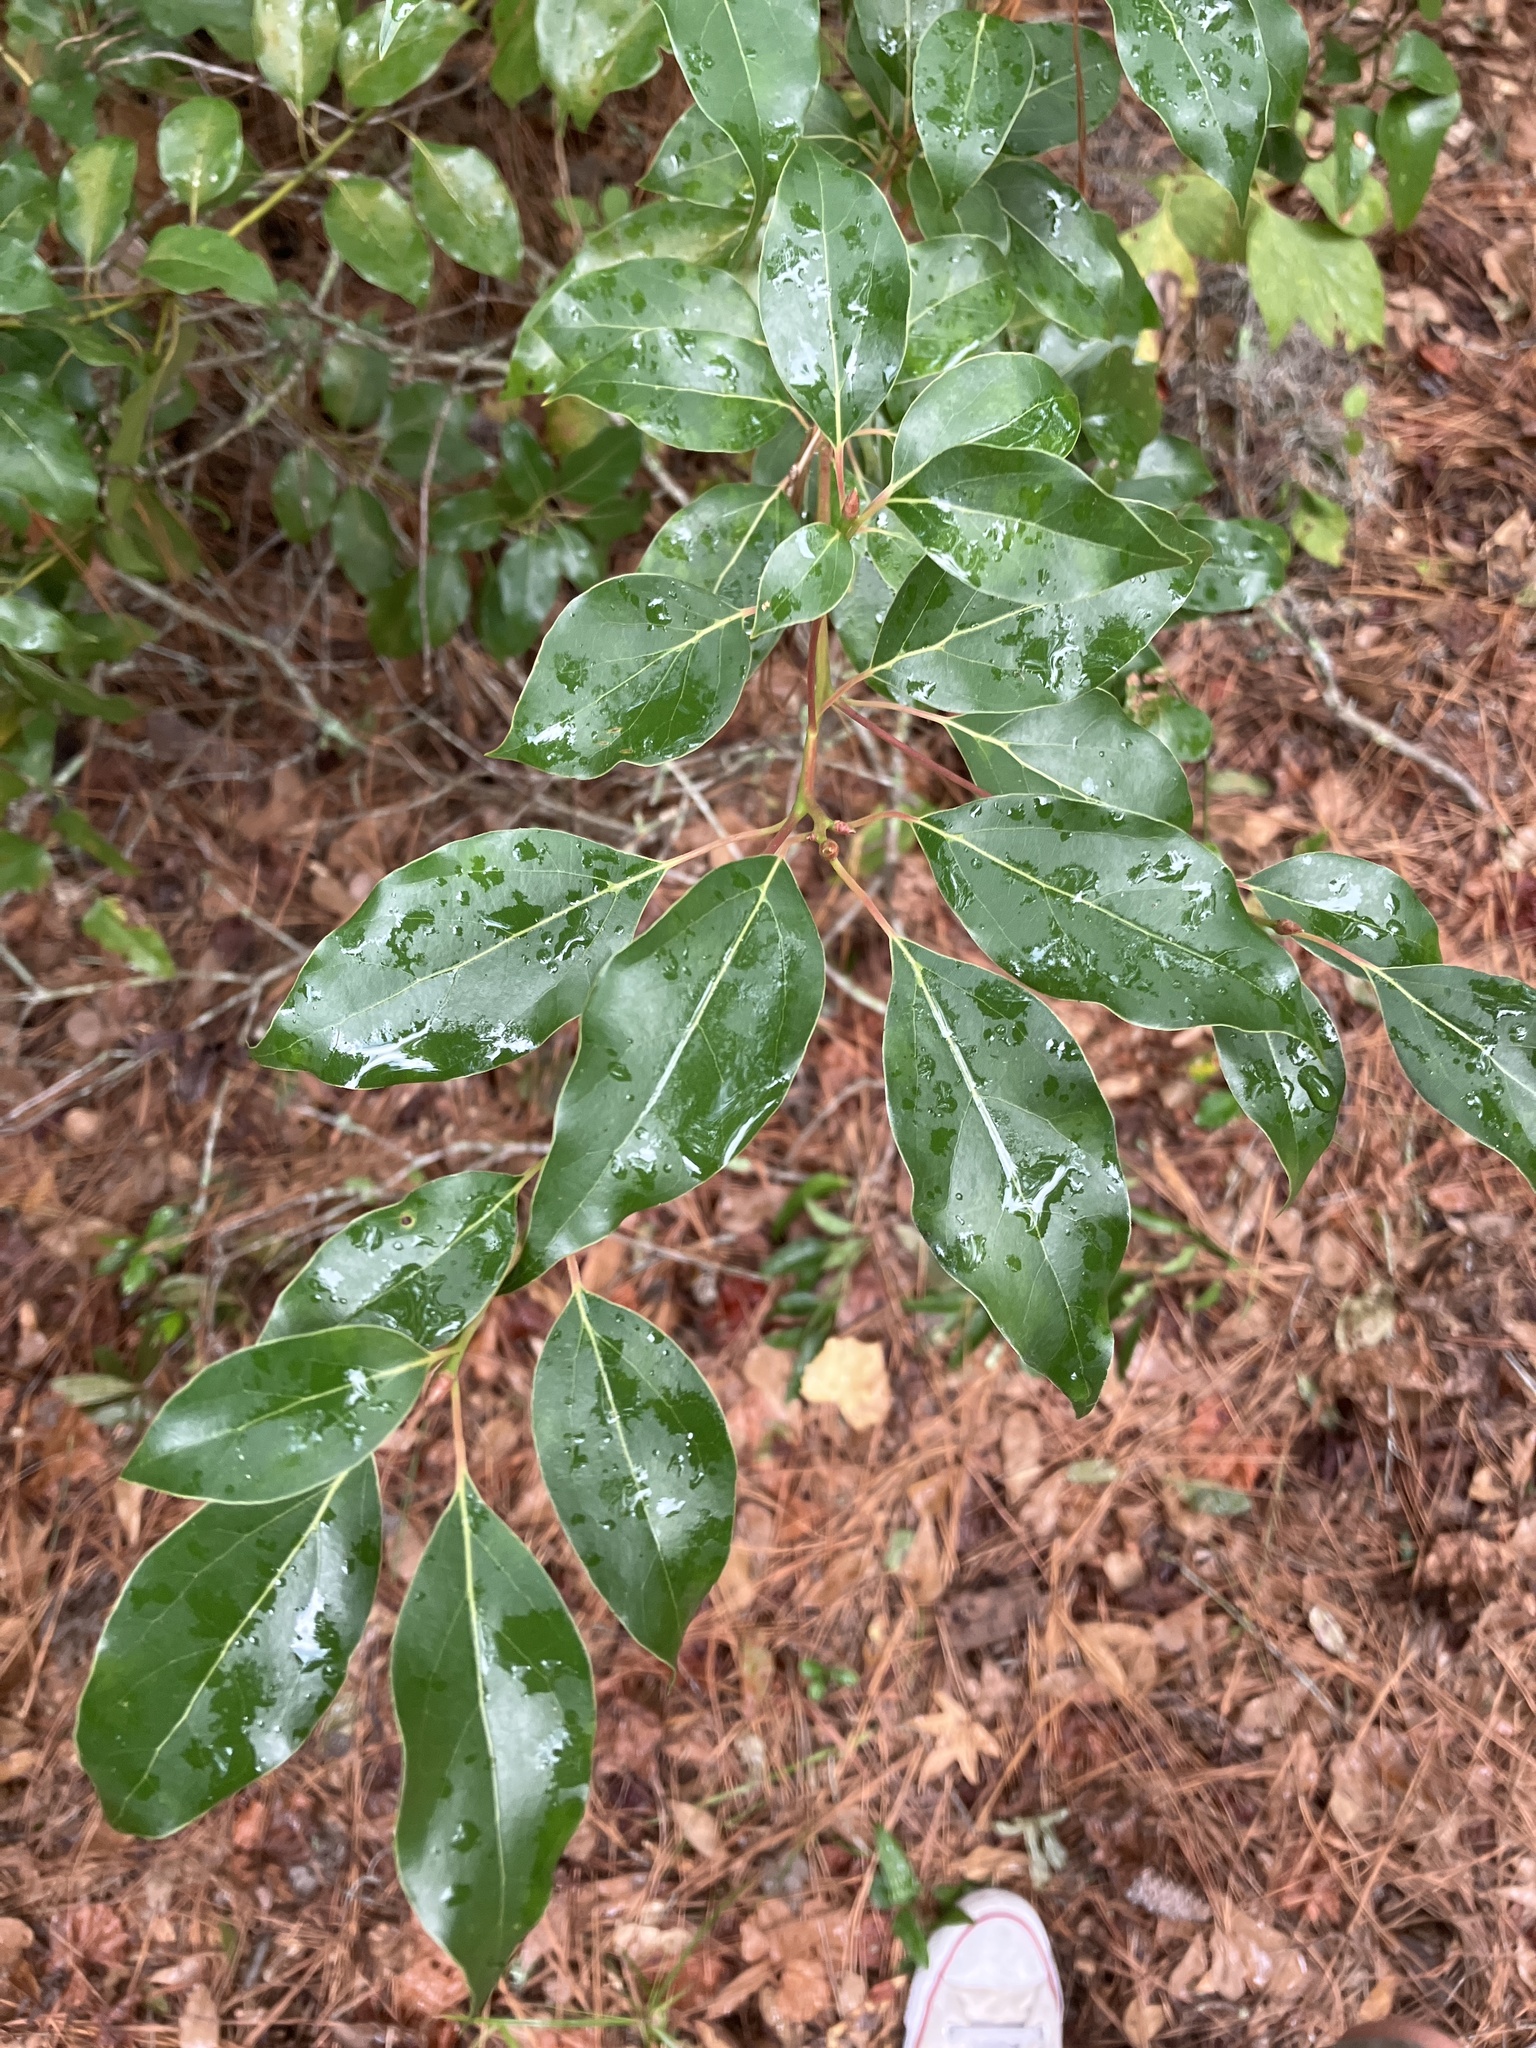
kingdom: Plantae
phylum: Tracheophyta
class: Magnoliopsida
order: Laurales
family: Lauraceae
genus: Cinnamomum
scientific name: Cinnamomum camphora
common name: Camphortree
